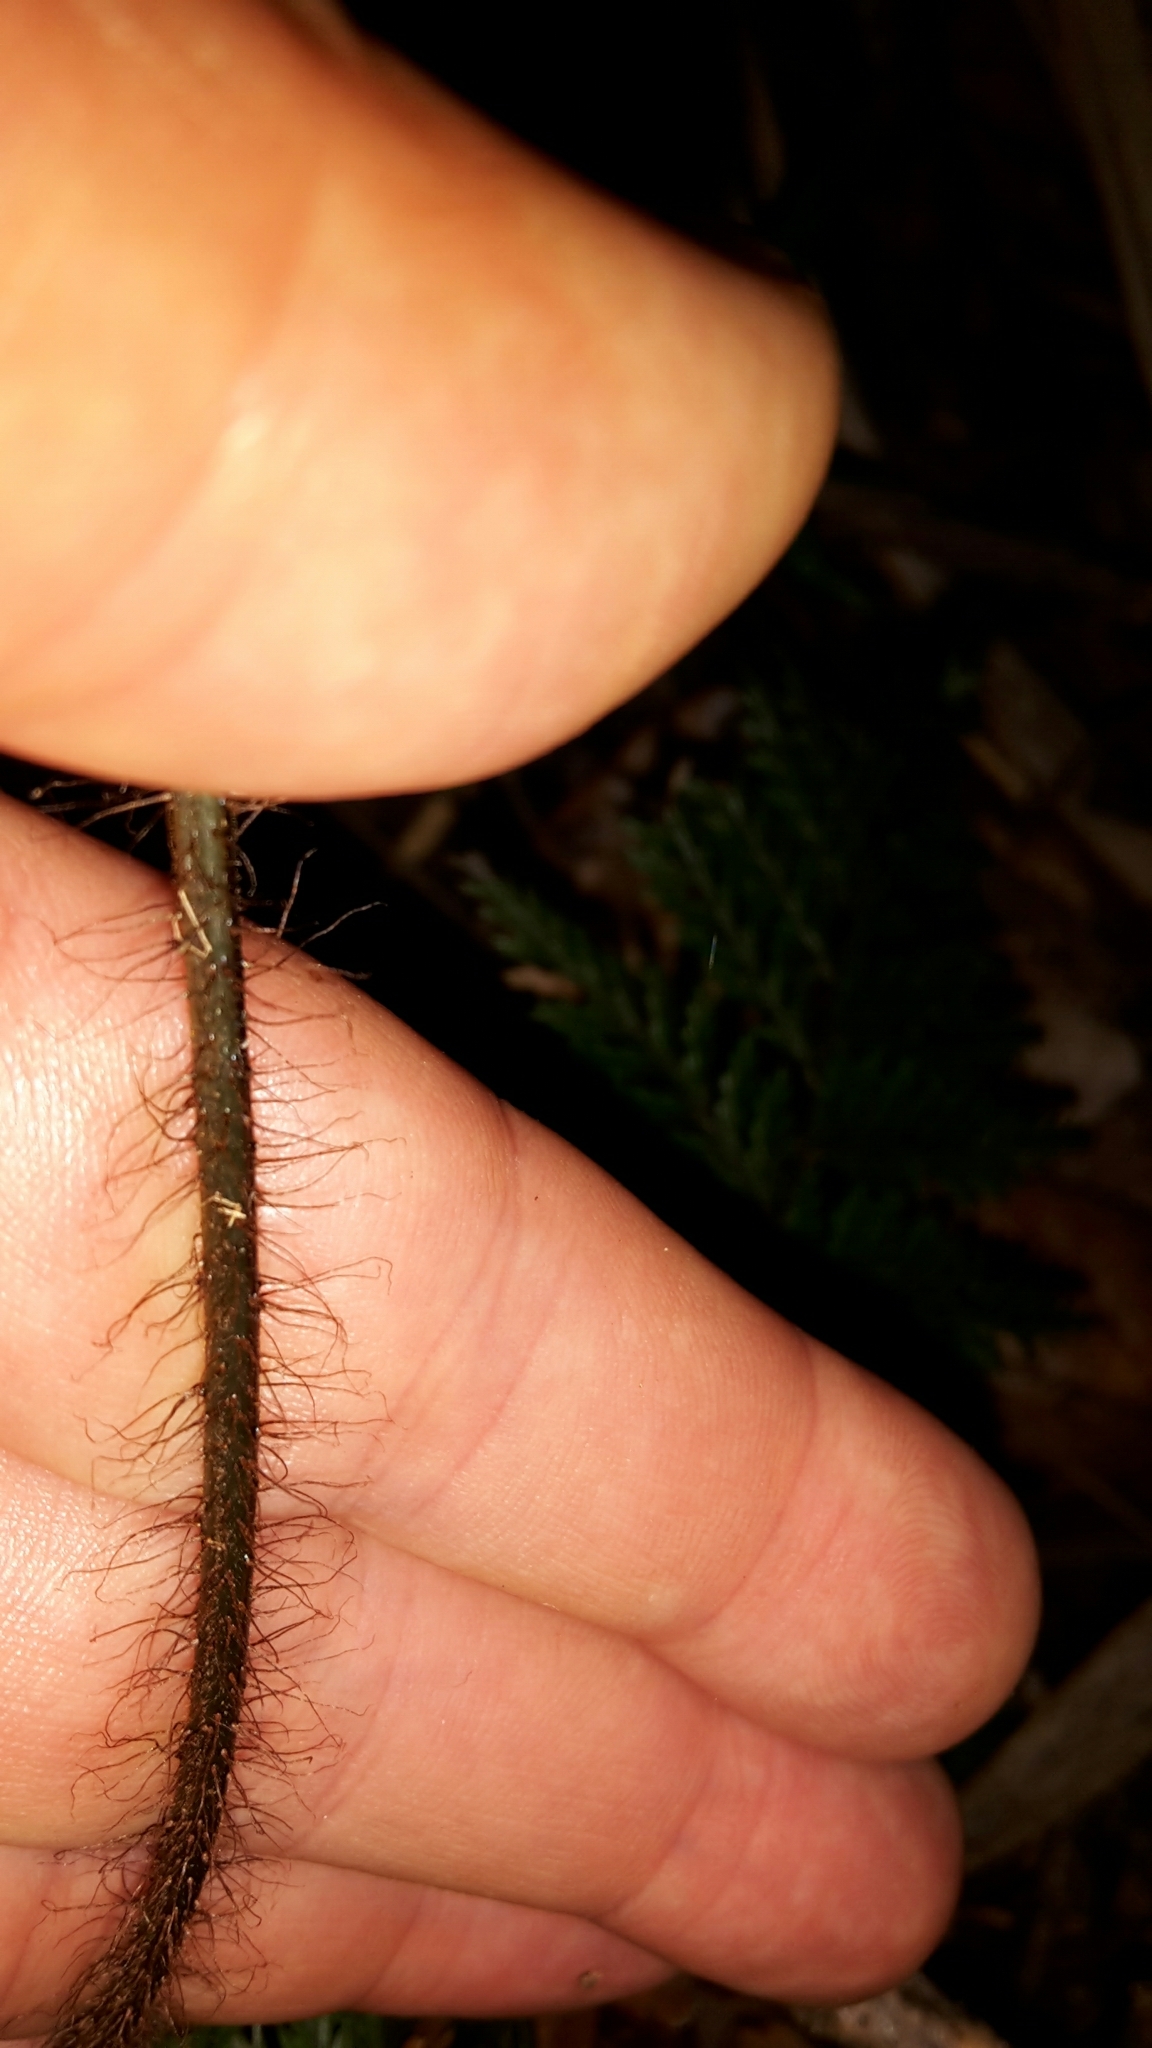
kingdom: Plantae
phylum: Tracheophyta
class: Polypodiopsida
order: Polypodiales
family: Dryopteridaceae
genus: Lastreopsis
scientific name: Lastreopsis hispida
